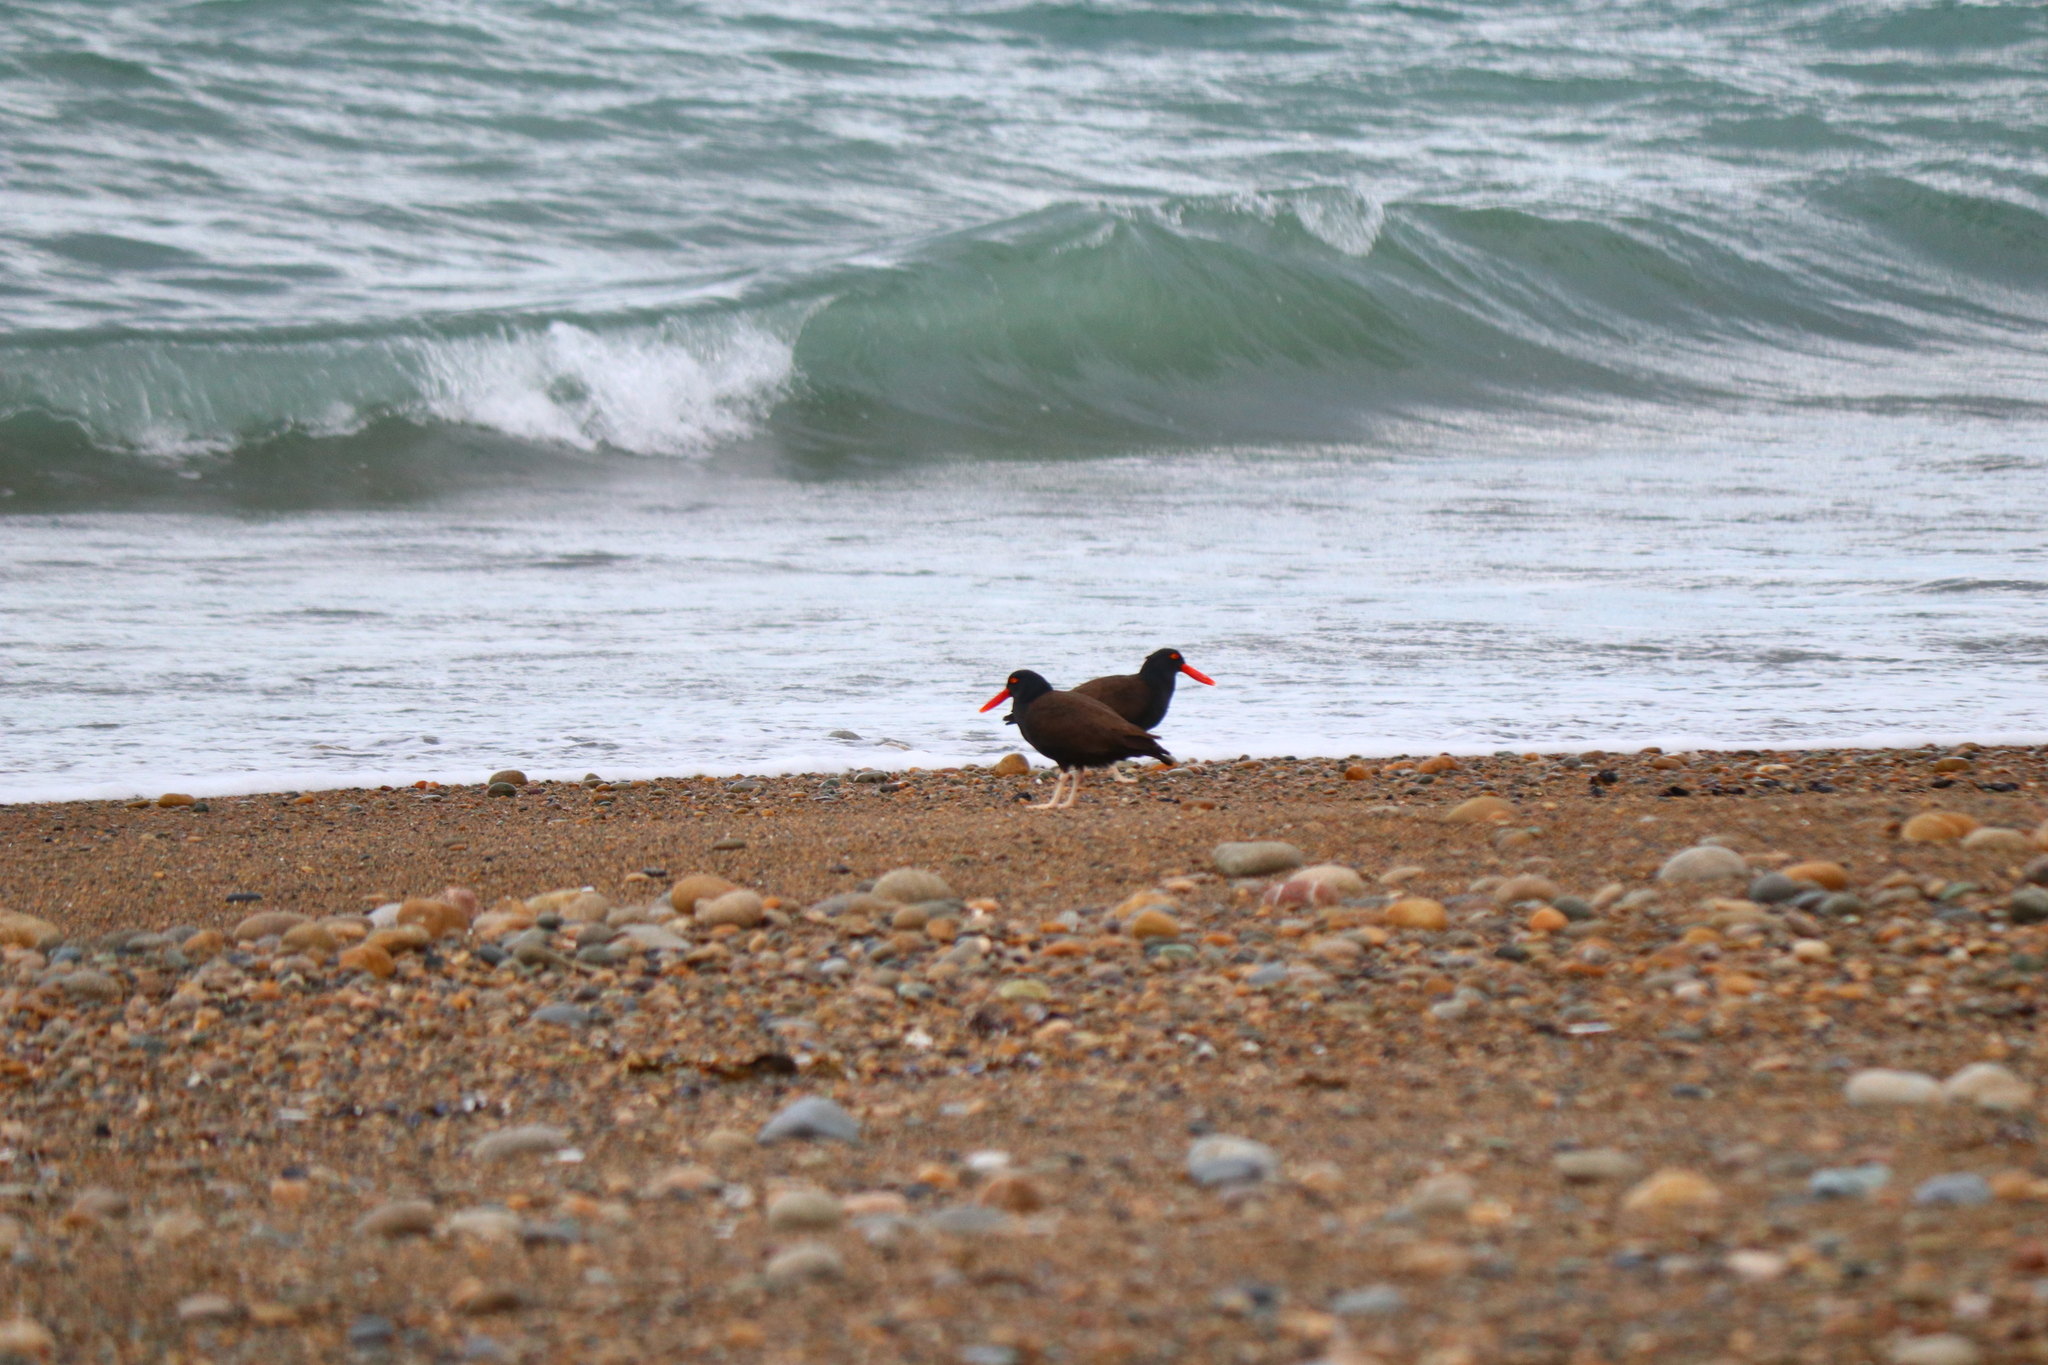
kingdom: Animalia
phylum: Chordata
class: Aves
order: Charadriiformes
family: Haematopodidae
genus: Haematopus
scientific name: Haematopus ater
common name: Blackish oystercatcher
